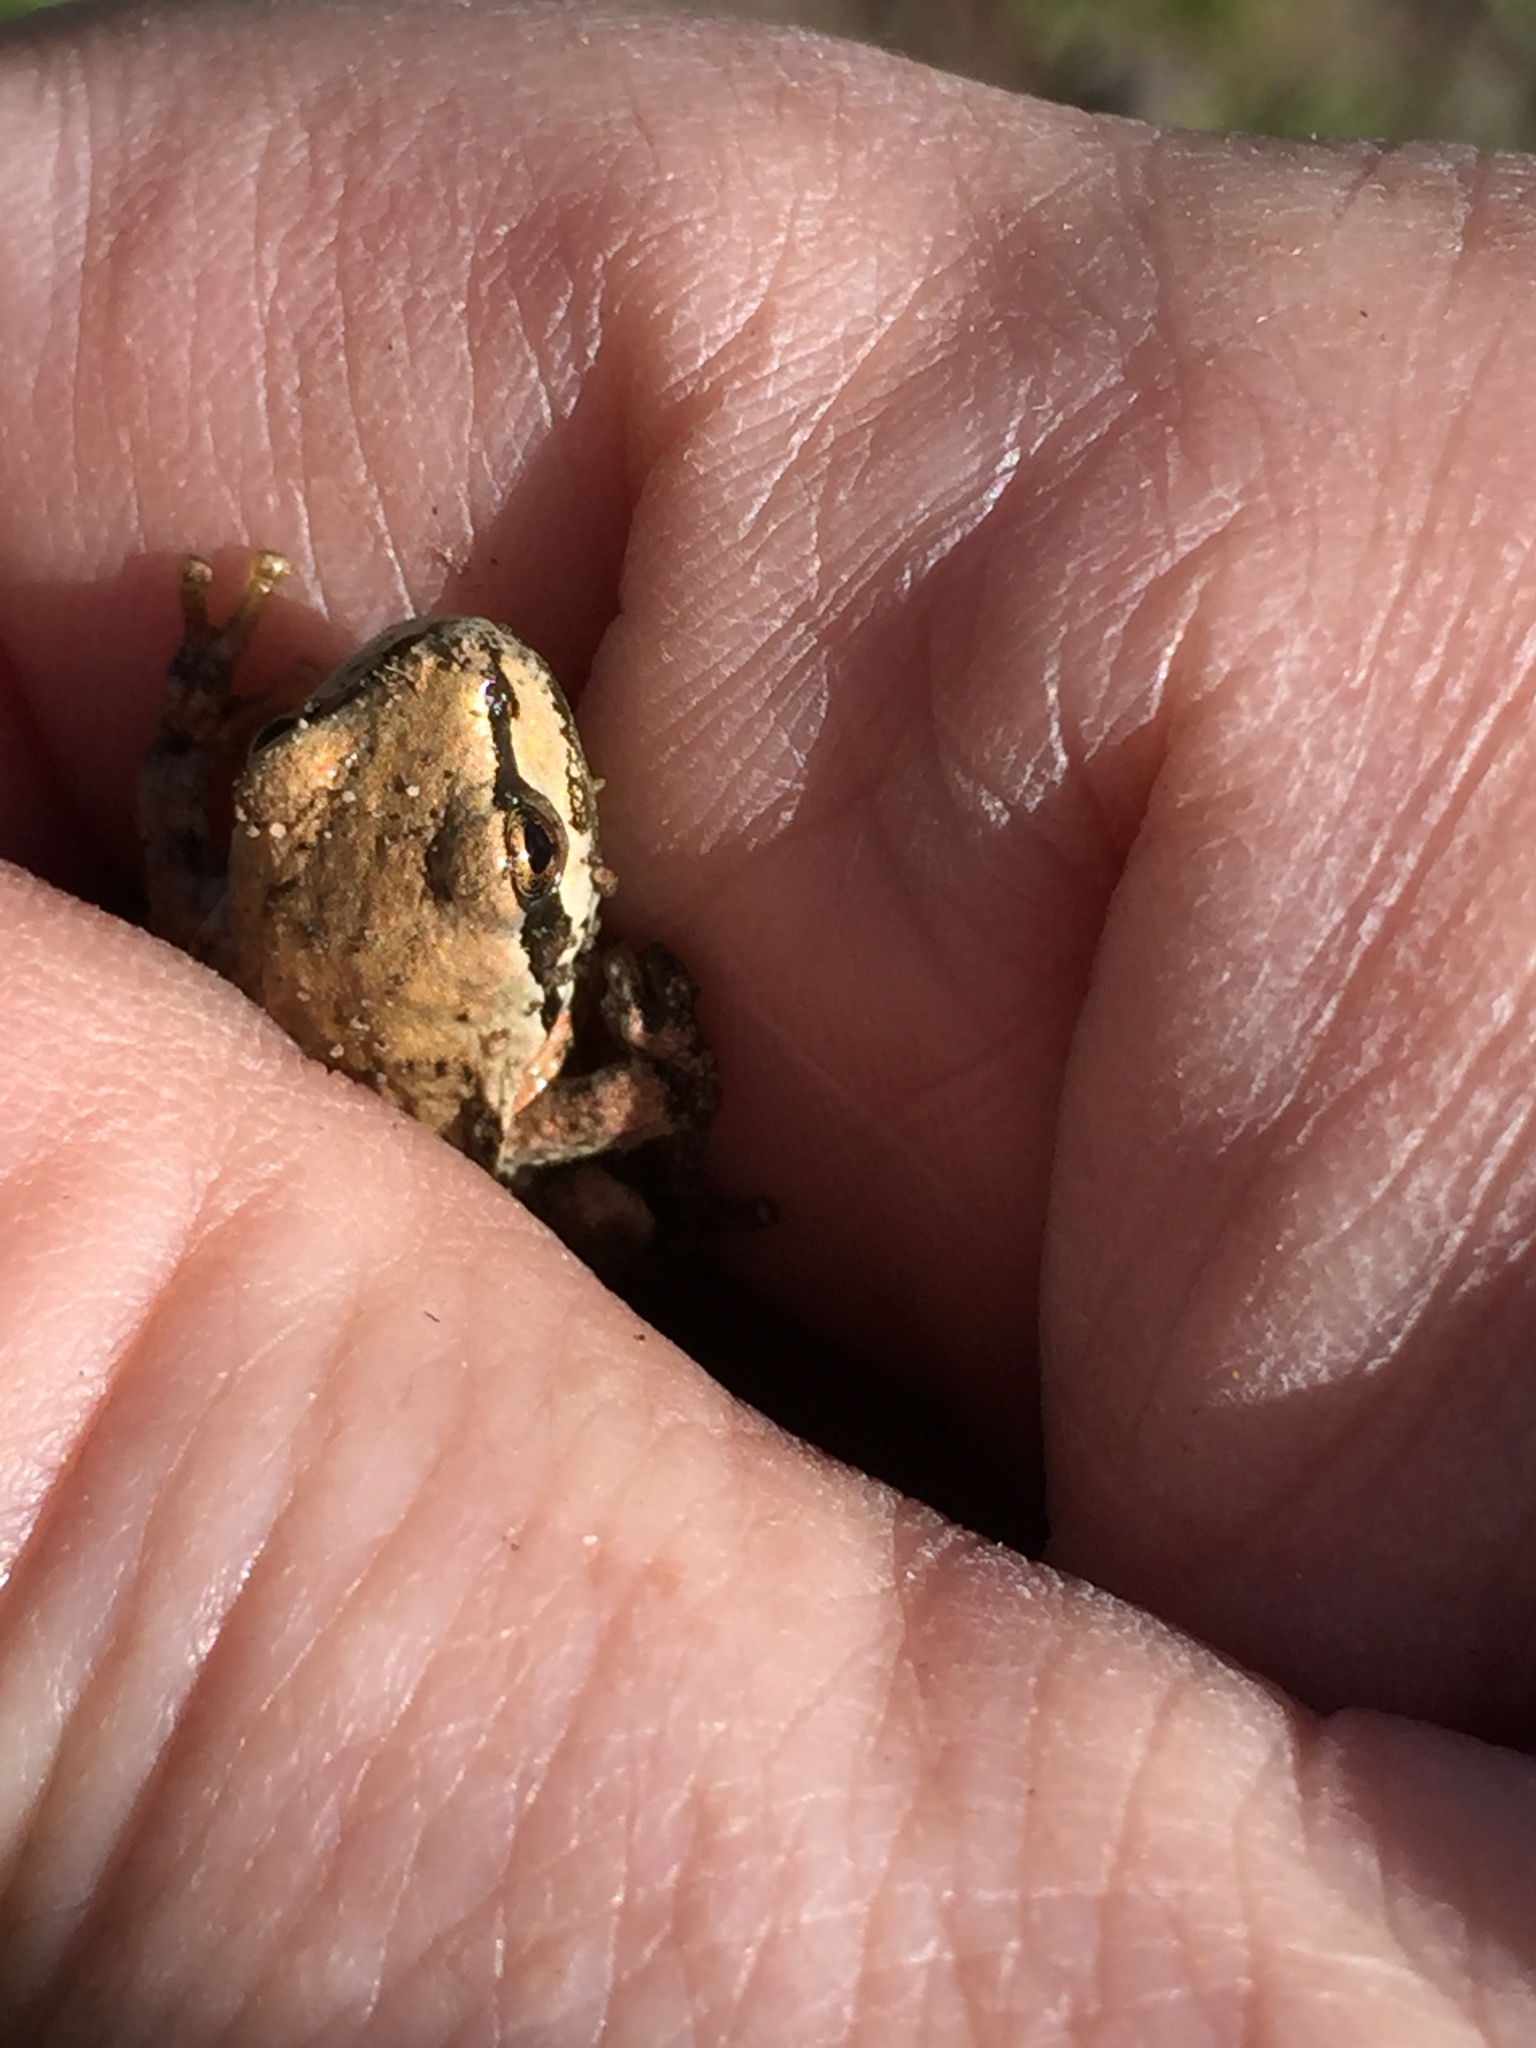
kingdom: Animalia
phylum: Chordata
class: Amphibia
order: Anura
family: Hylidae
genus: Pseudacris
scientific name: Pseudacris regilla
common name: Pacific chorus frog
